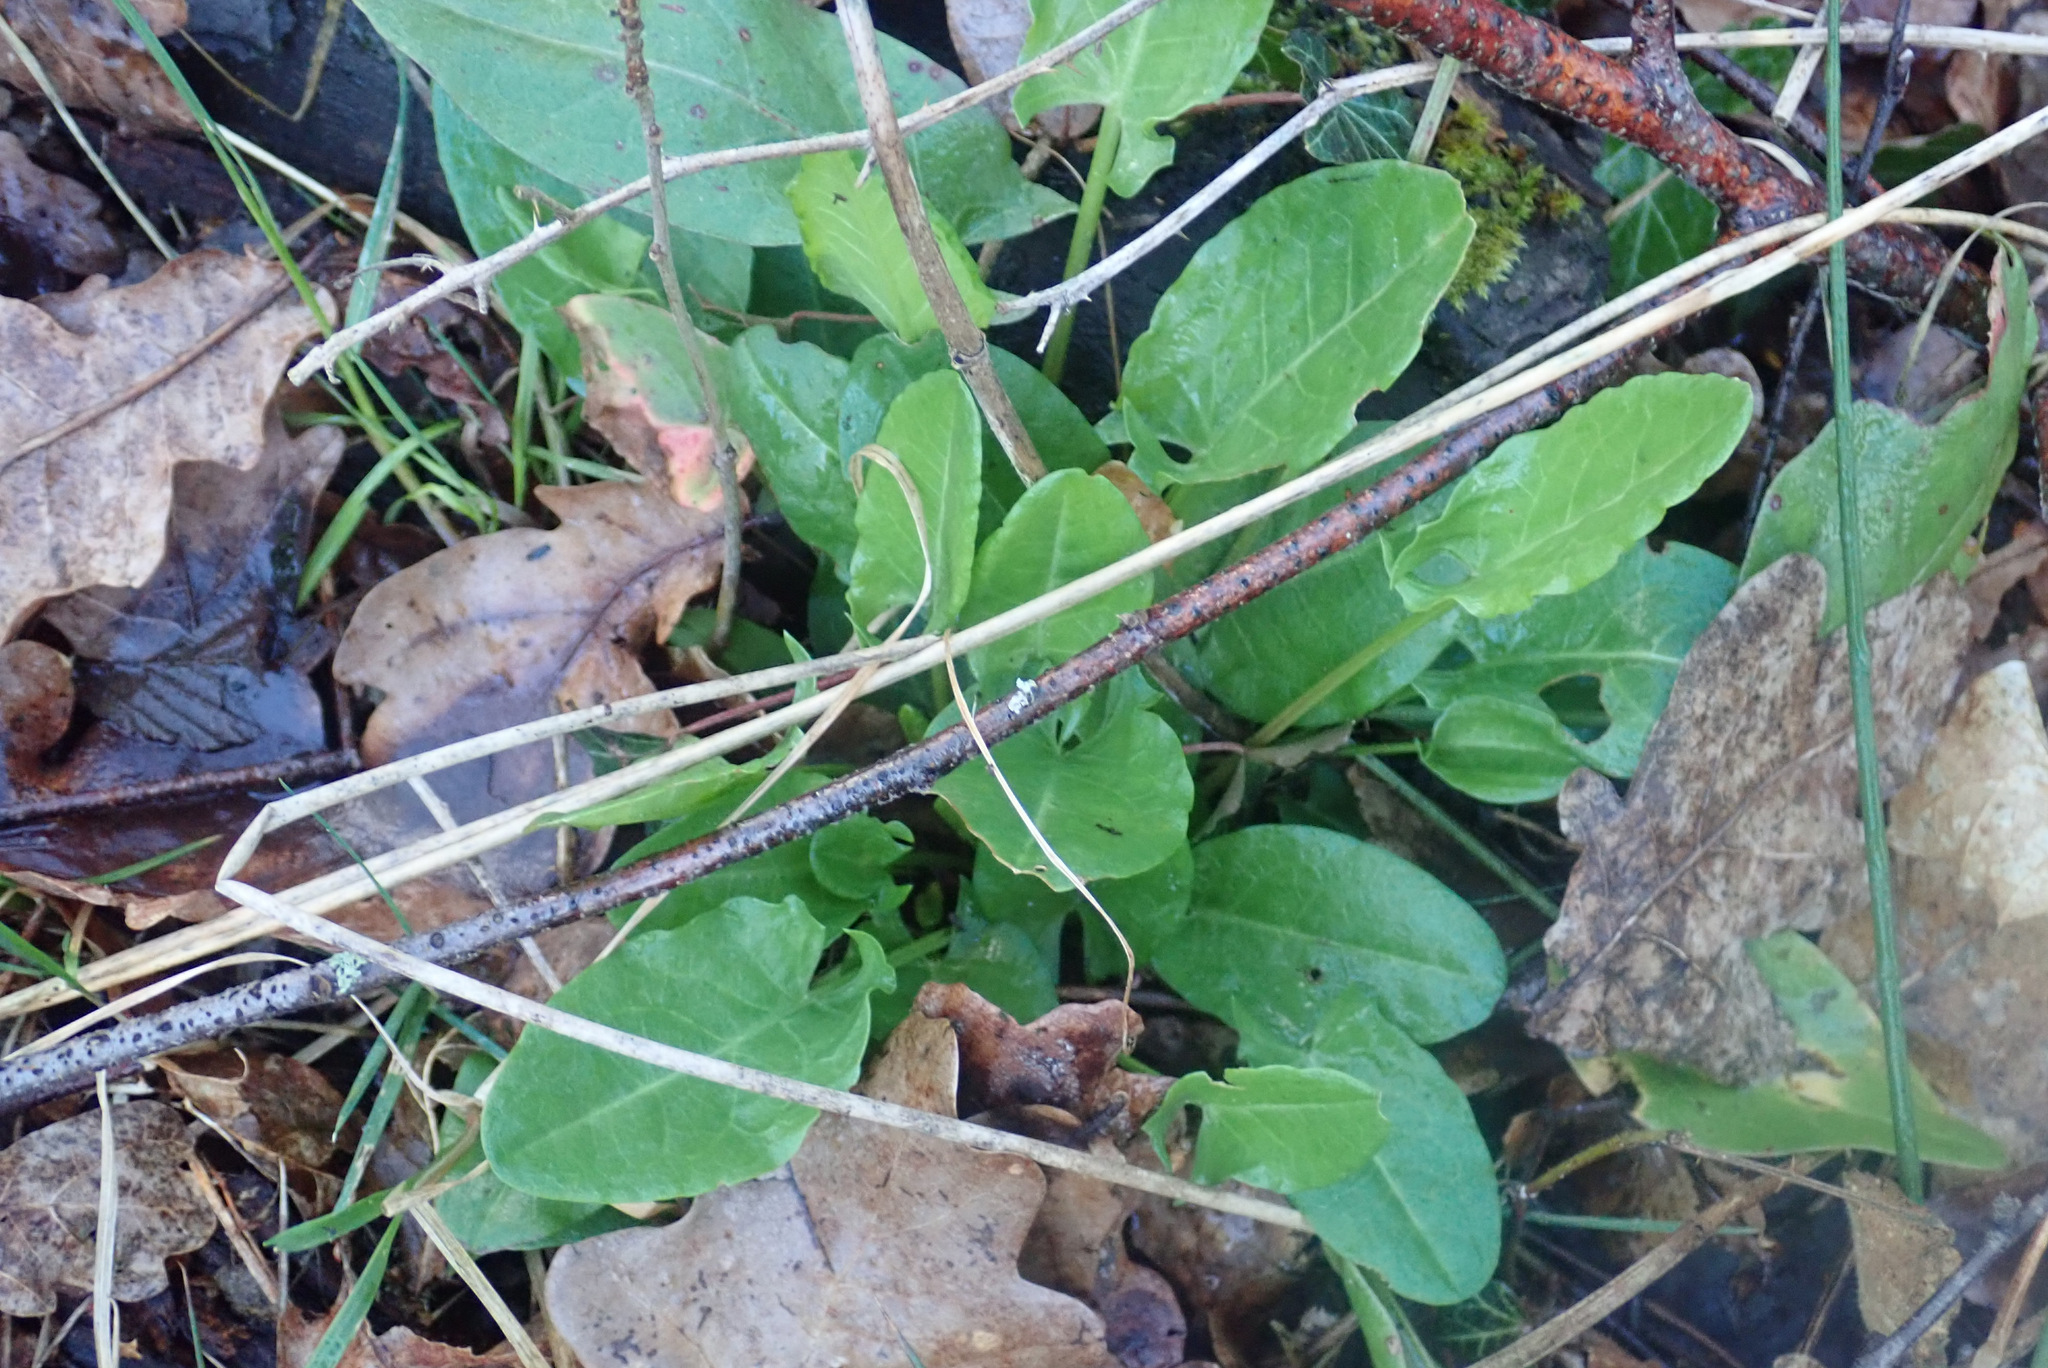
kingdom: Plantae
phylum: Tracheophyta
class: Magnoliopsida
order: Caryophyllales
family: Polygonaceae
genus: Rumex
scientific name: Rumex acetosa
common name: Garden sorrel
